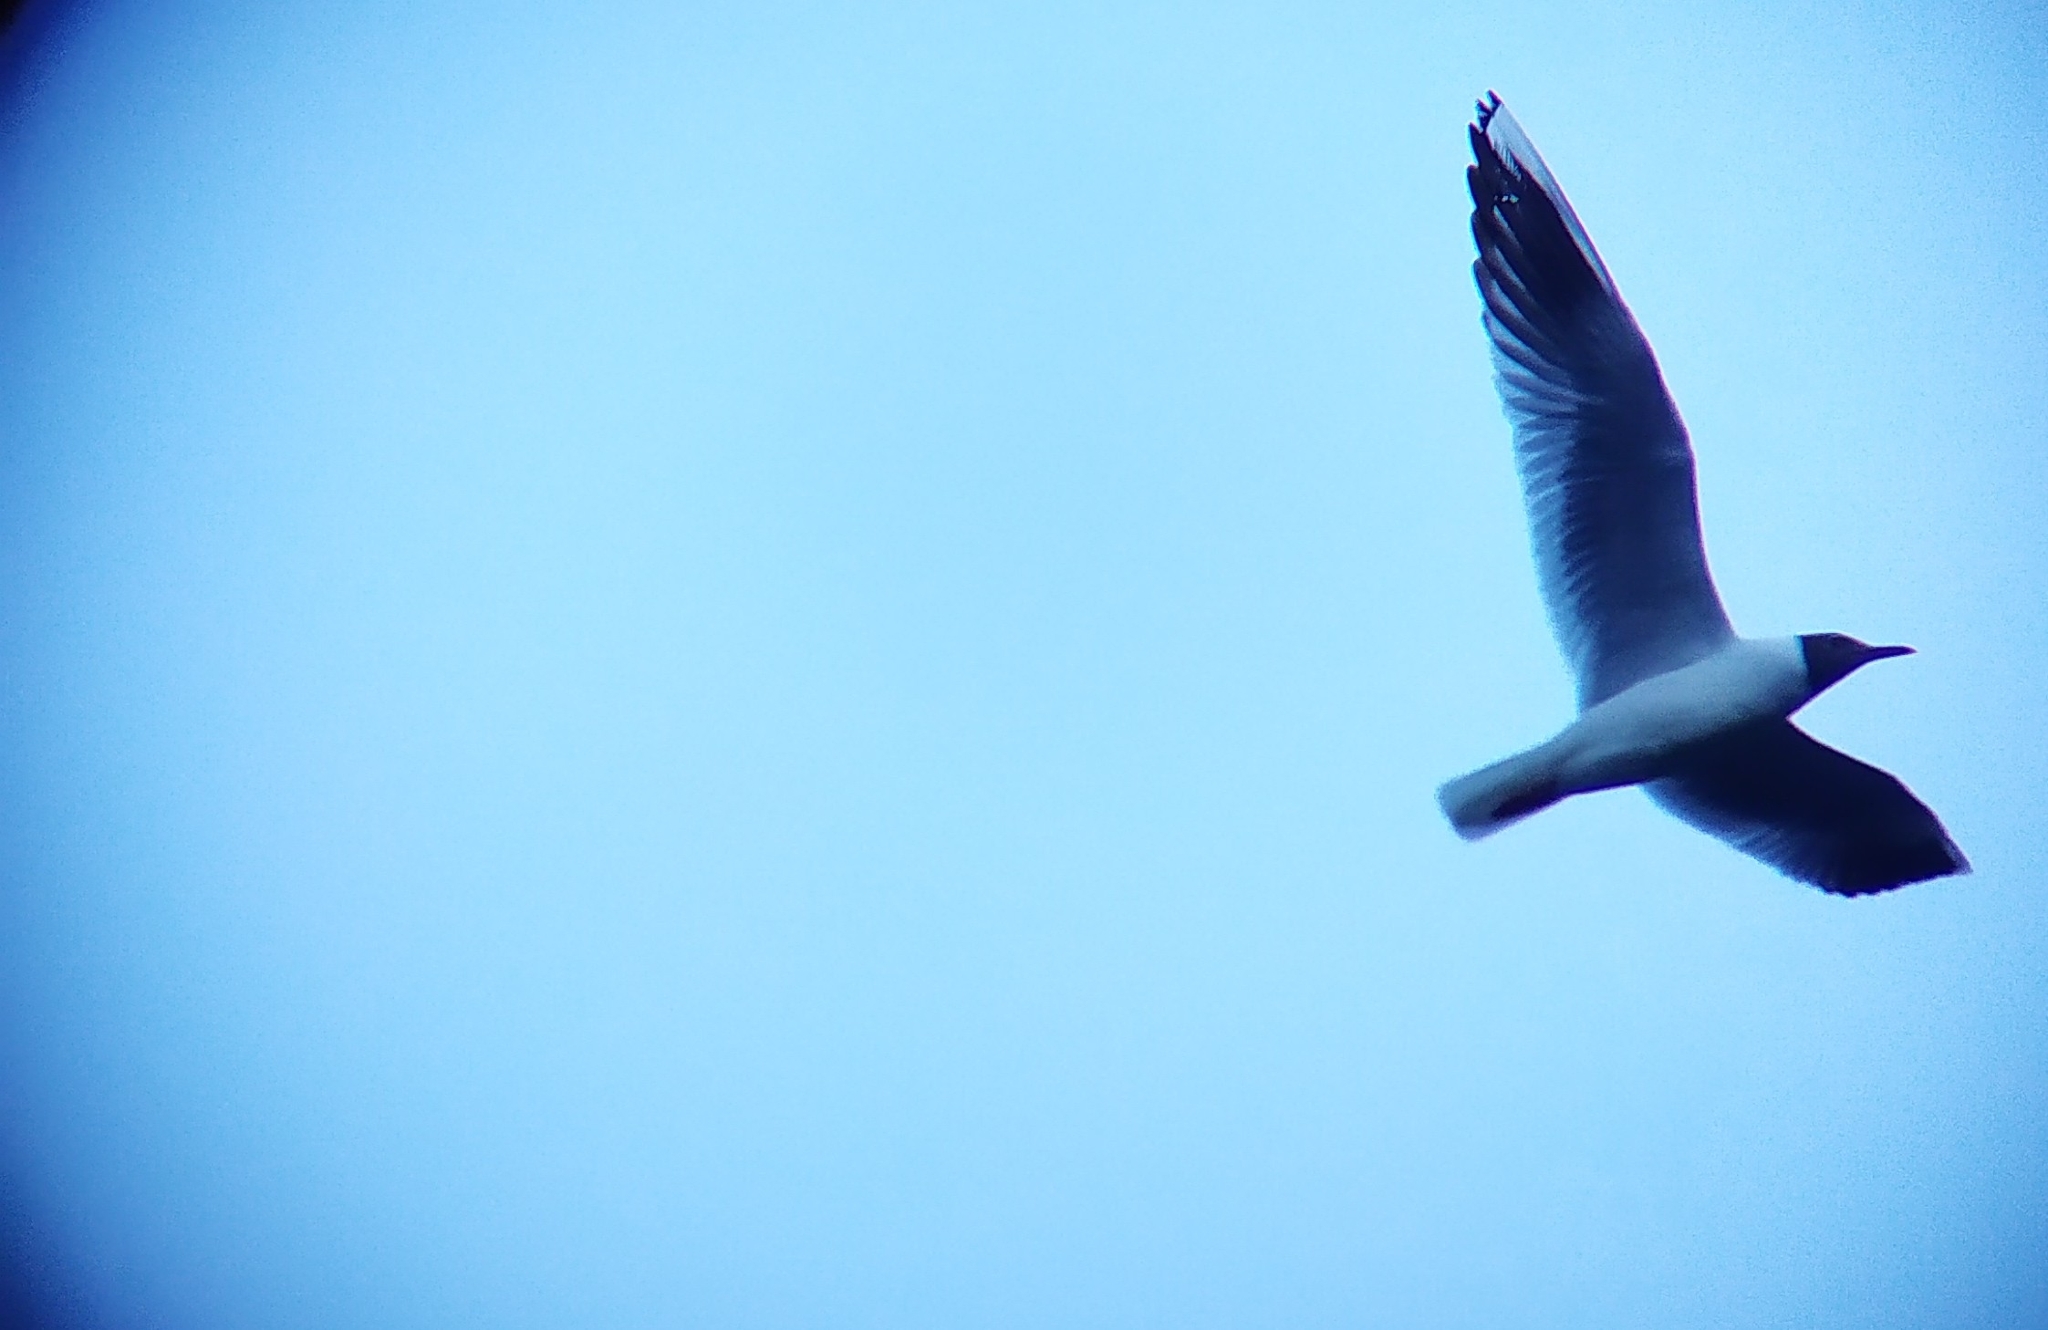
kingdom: Animalia
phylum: Chordata
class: Aves
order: Charadriiformes
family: Laridae
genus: Chroicocephalus
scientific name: Chroicocephalus ridibundus
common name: Black-headed gull
